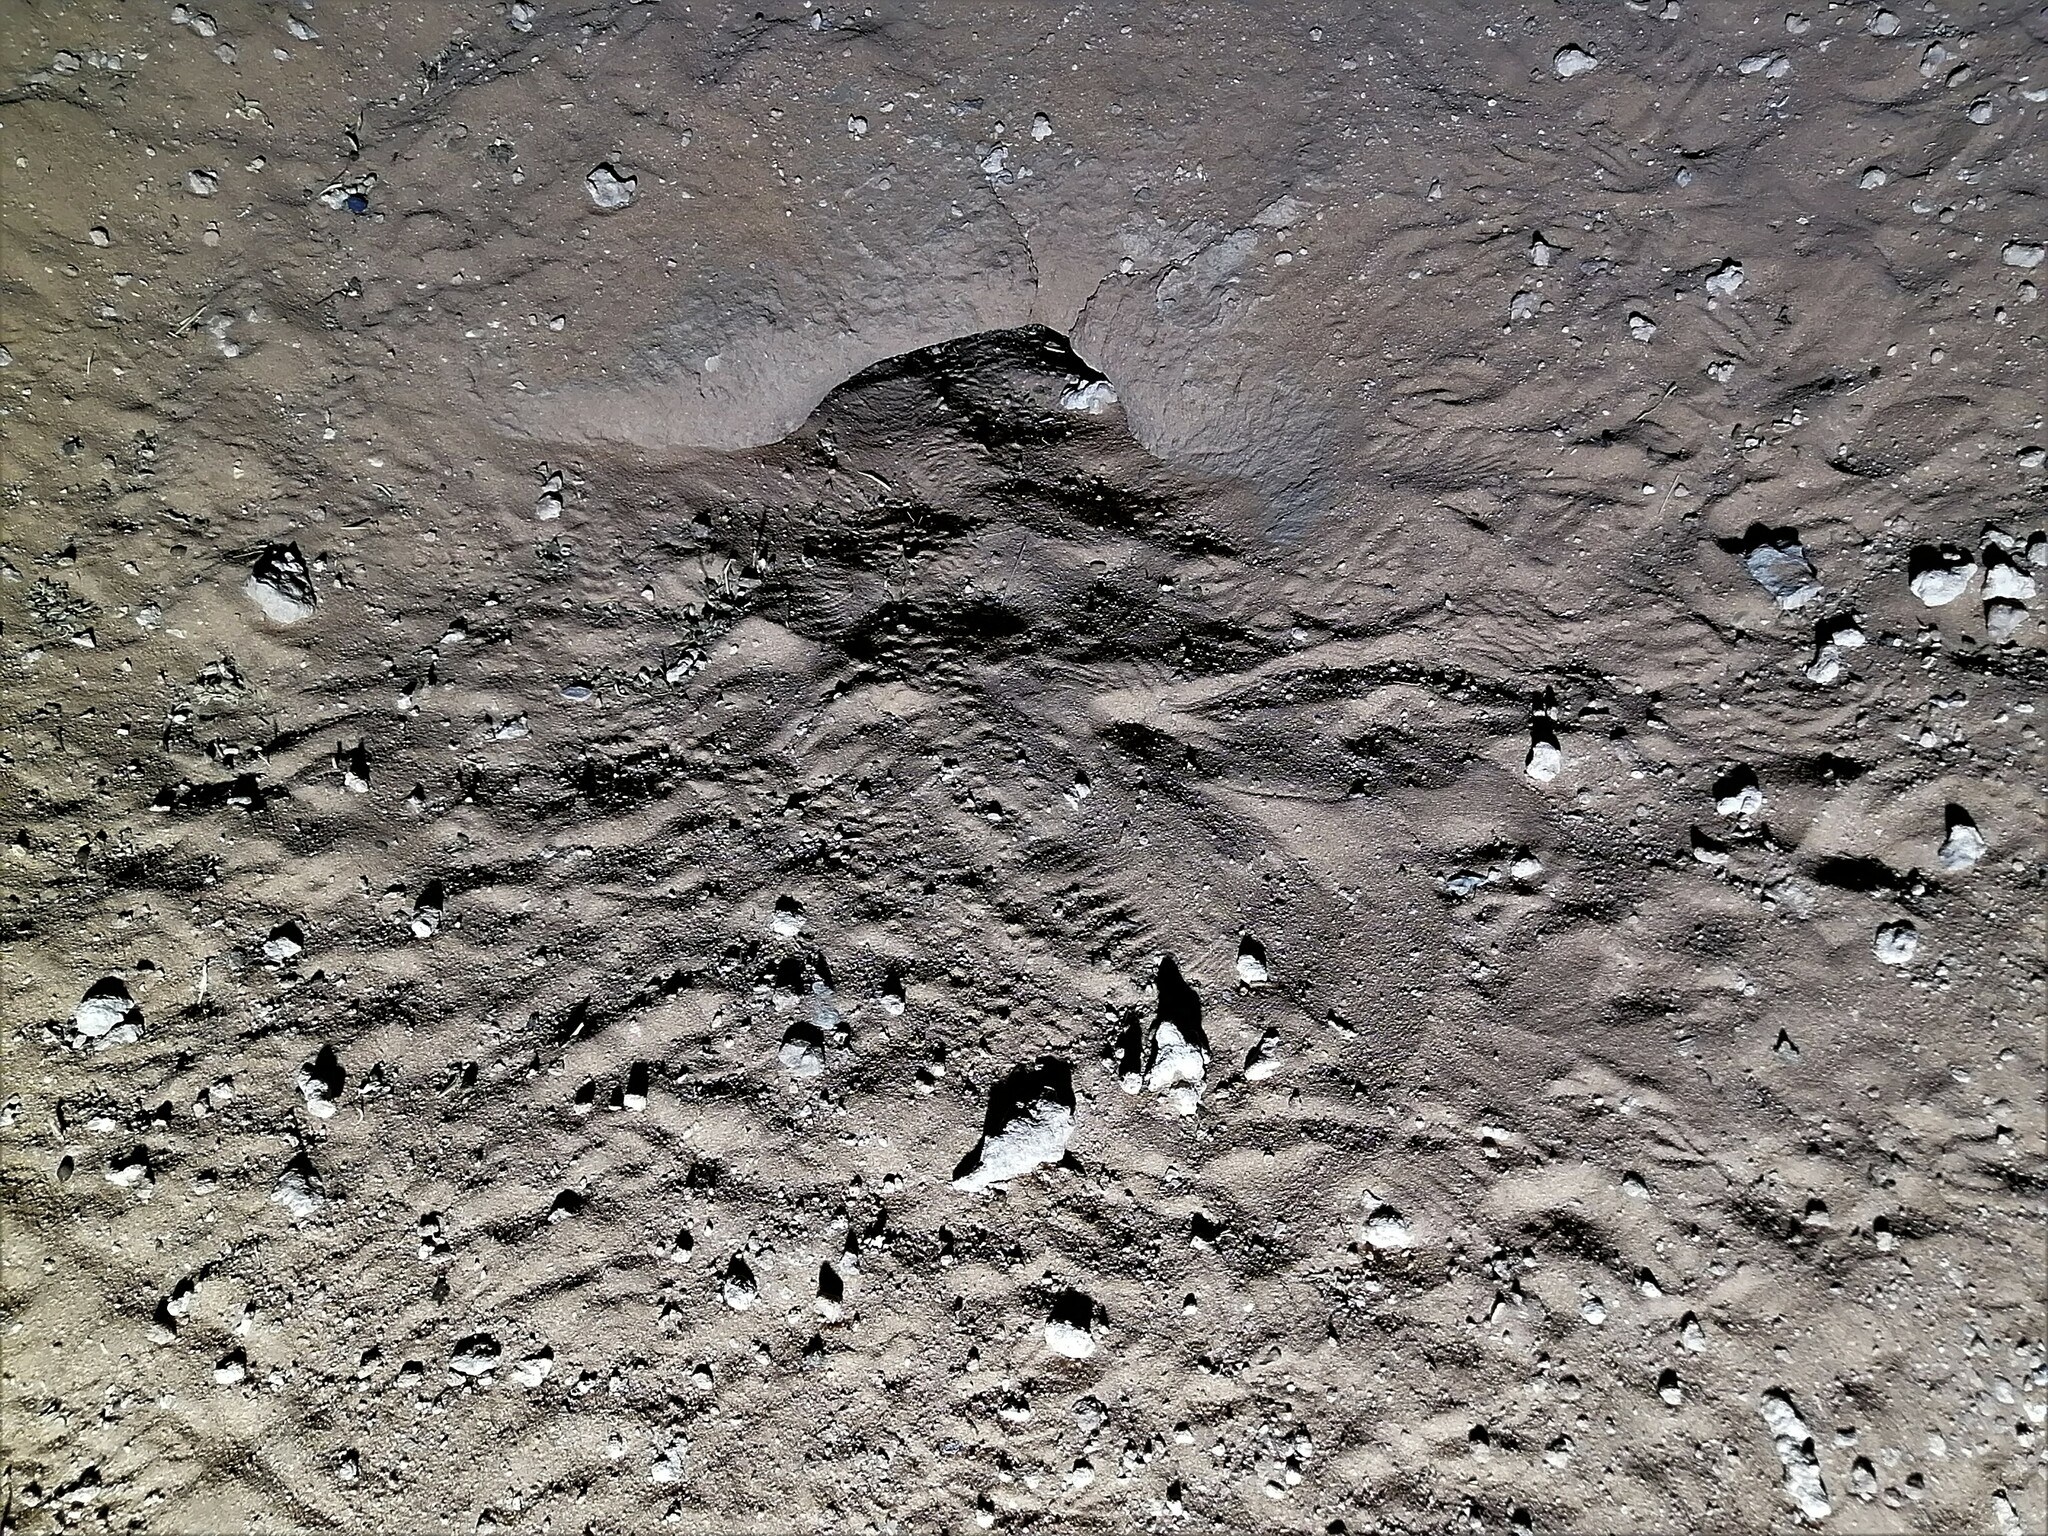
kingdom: Animalia
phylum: Chordata
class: Squamata
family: Agamidae
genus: Uromastyx
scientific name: Uromastyx aegyptia
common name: Egyptian mastigure
